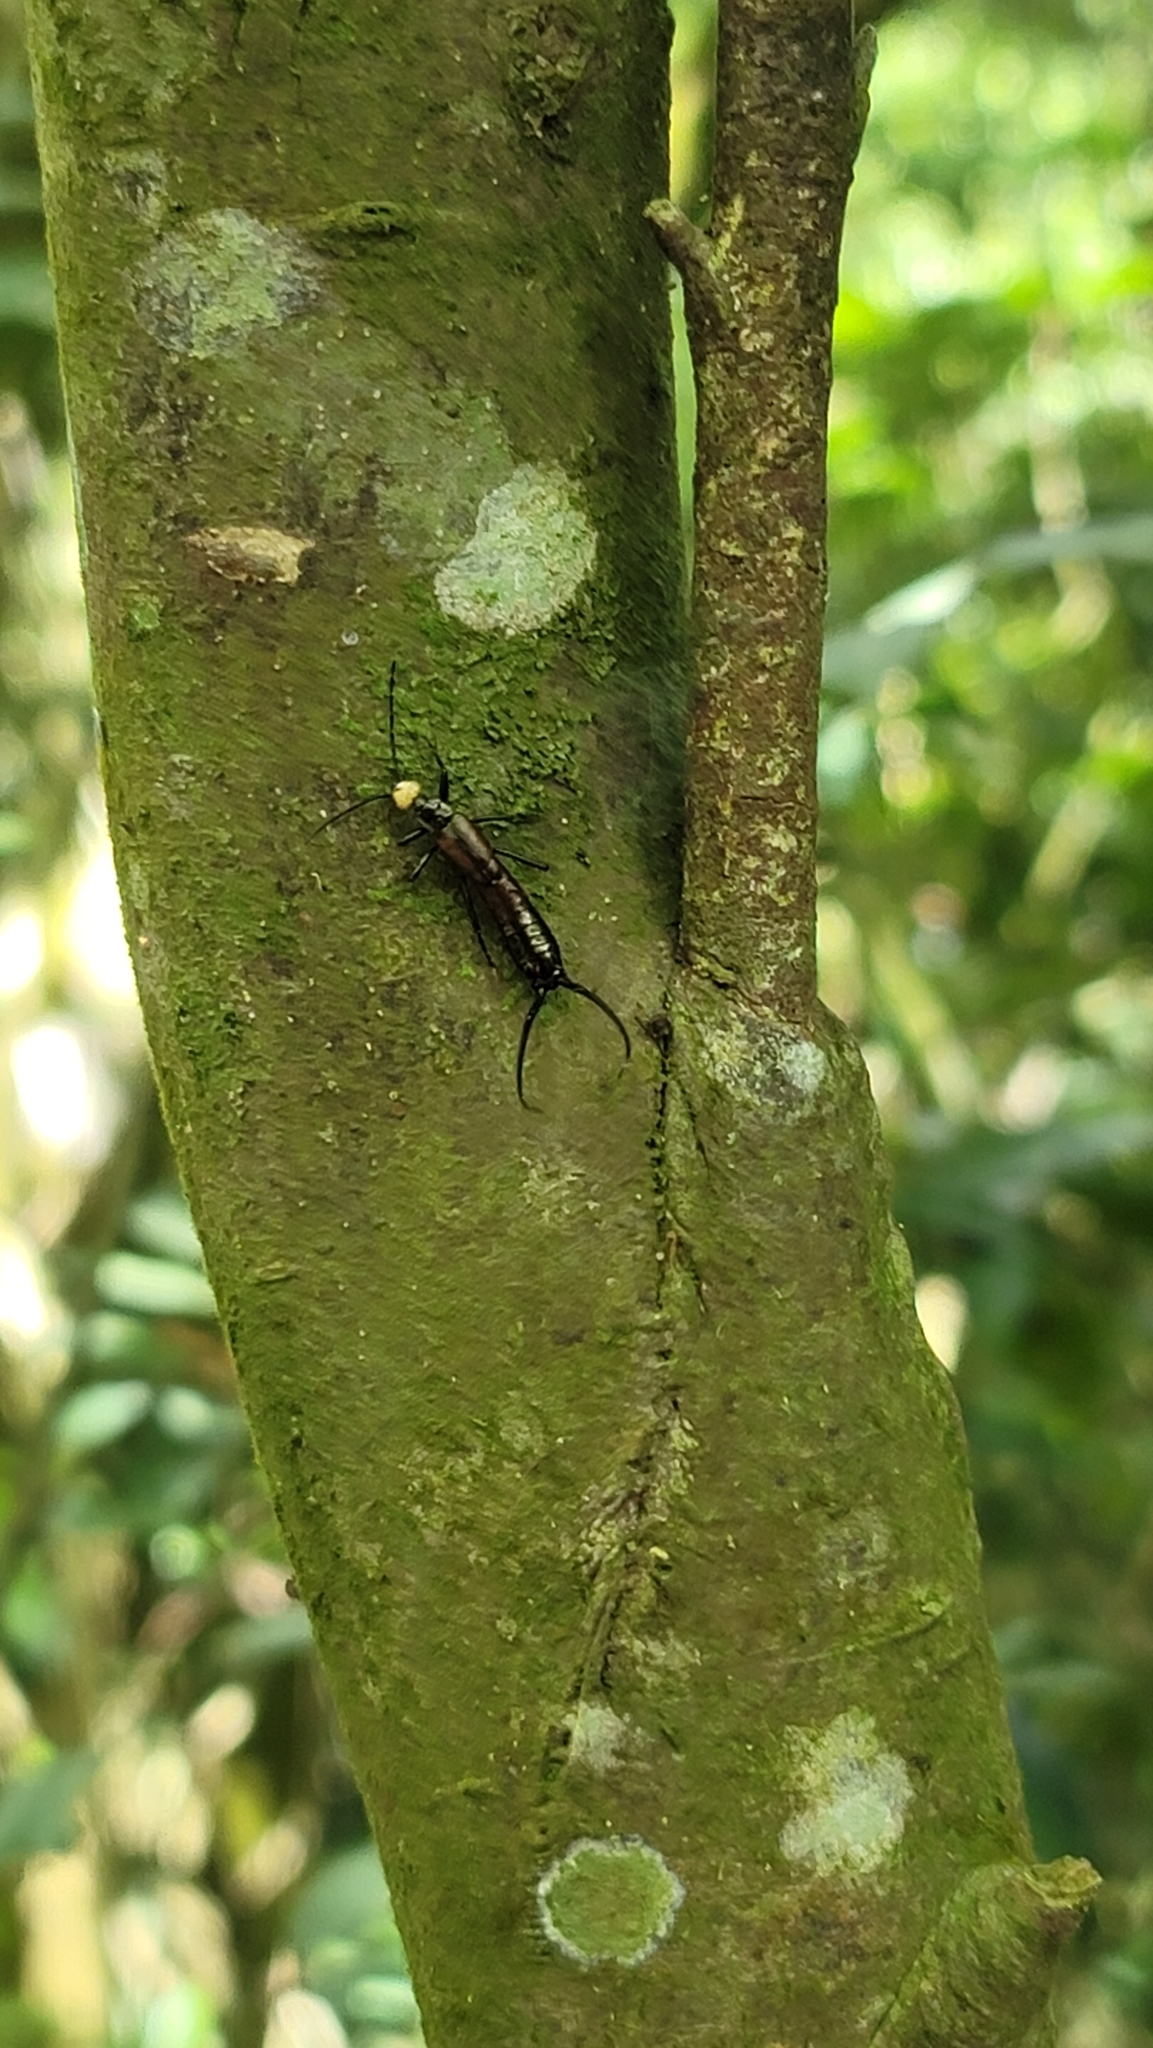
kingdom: Animalia
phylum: Arthropoda
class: Insecta
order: Dermaptera
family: Forficulidae
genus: Paratimomenus
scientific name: Paratimomenus flavocapitata
